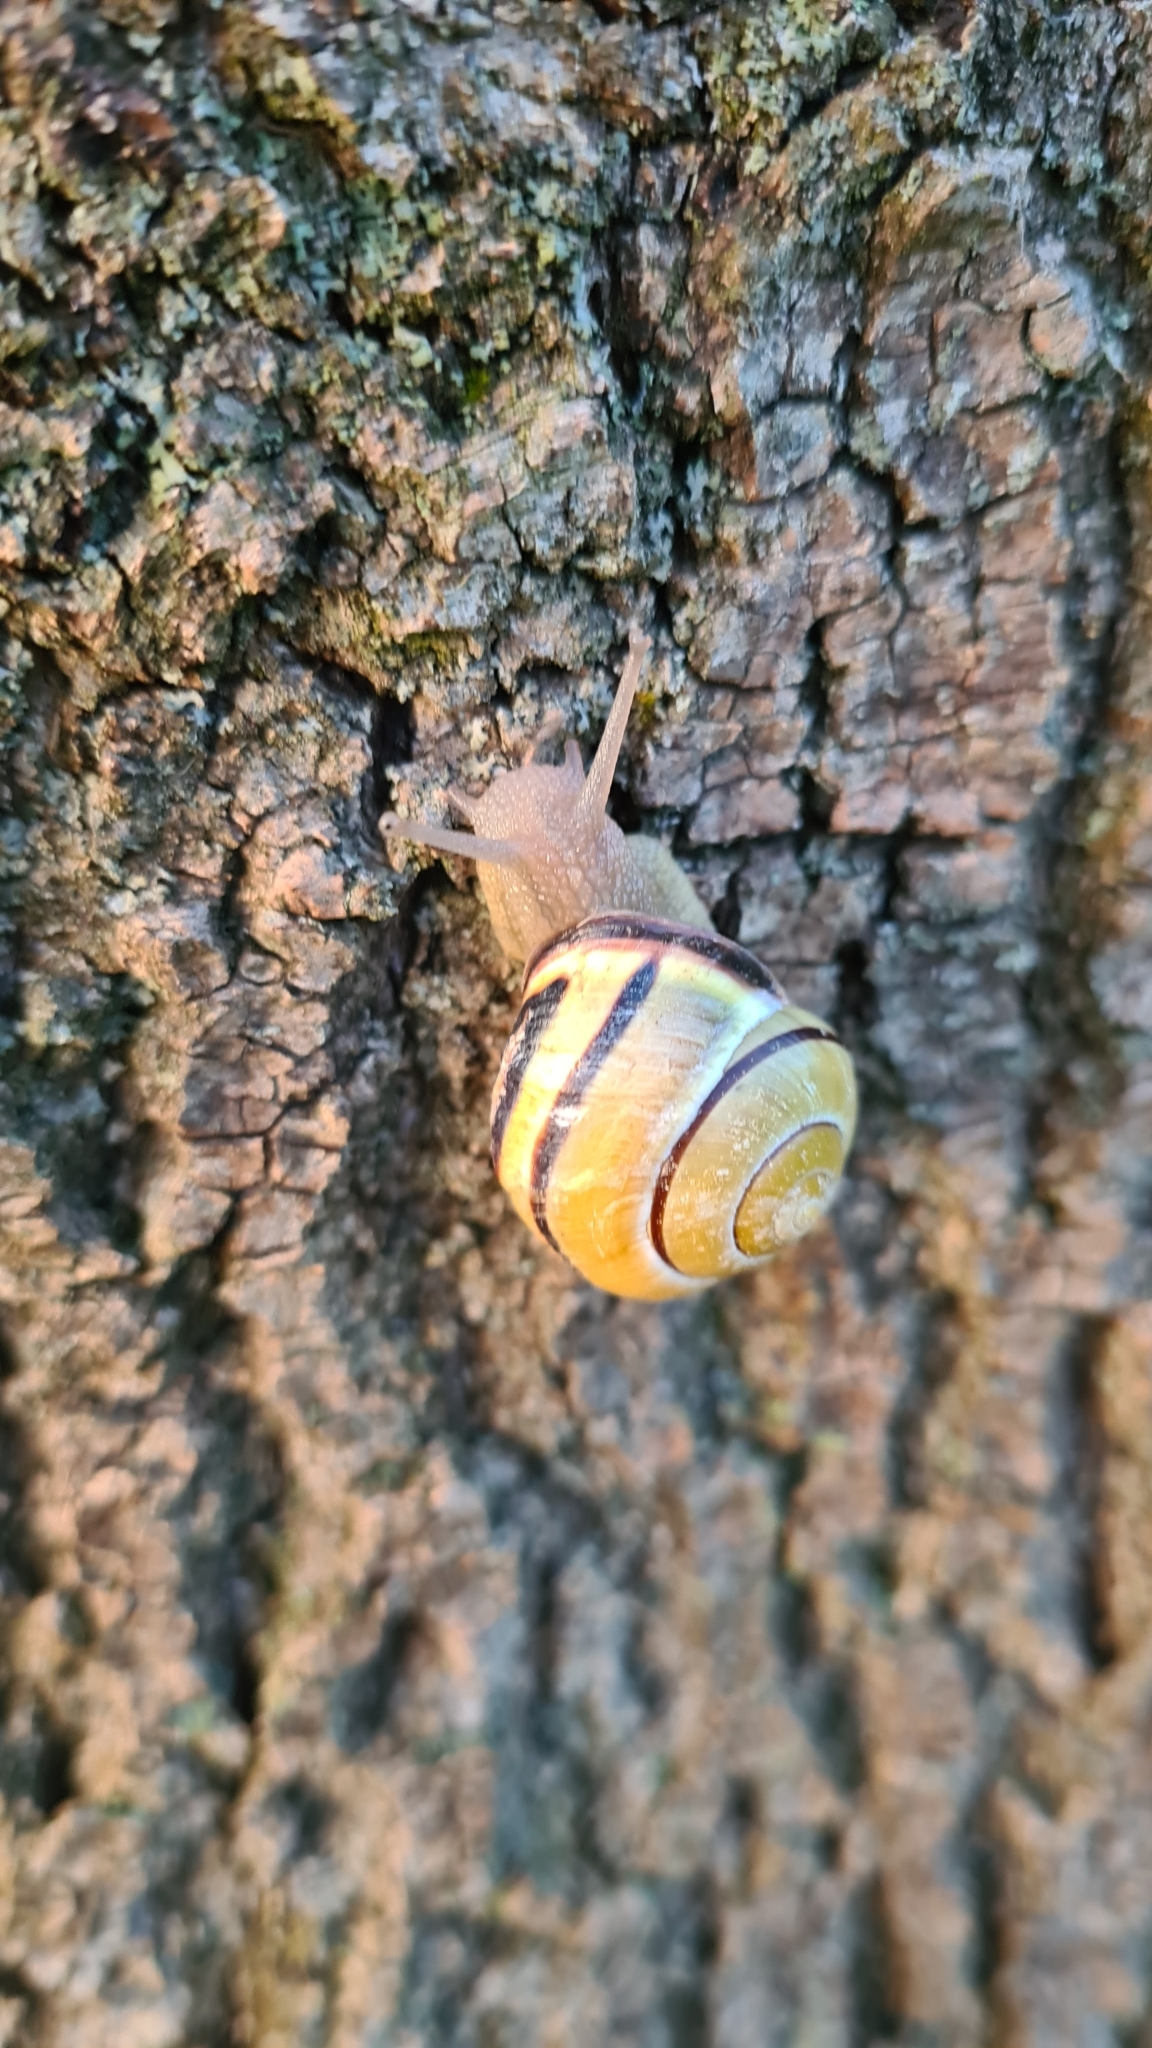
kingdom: Animalia
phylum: Mollusca
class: Gastropoda
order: Stylommatophora
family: Helicidae
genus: Cepaea
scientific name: Cepaea nemoralis
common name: Grovesnail
